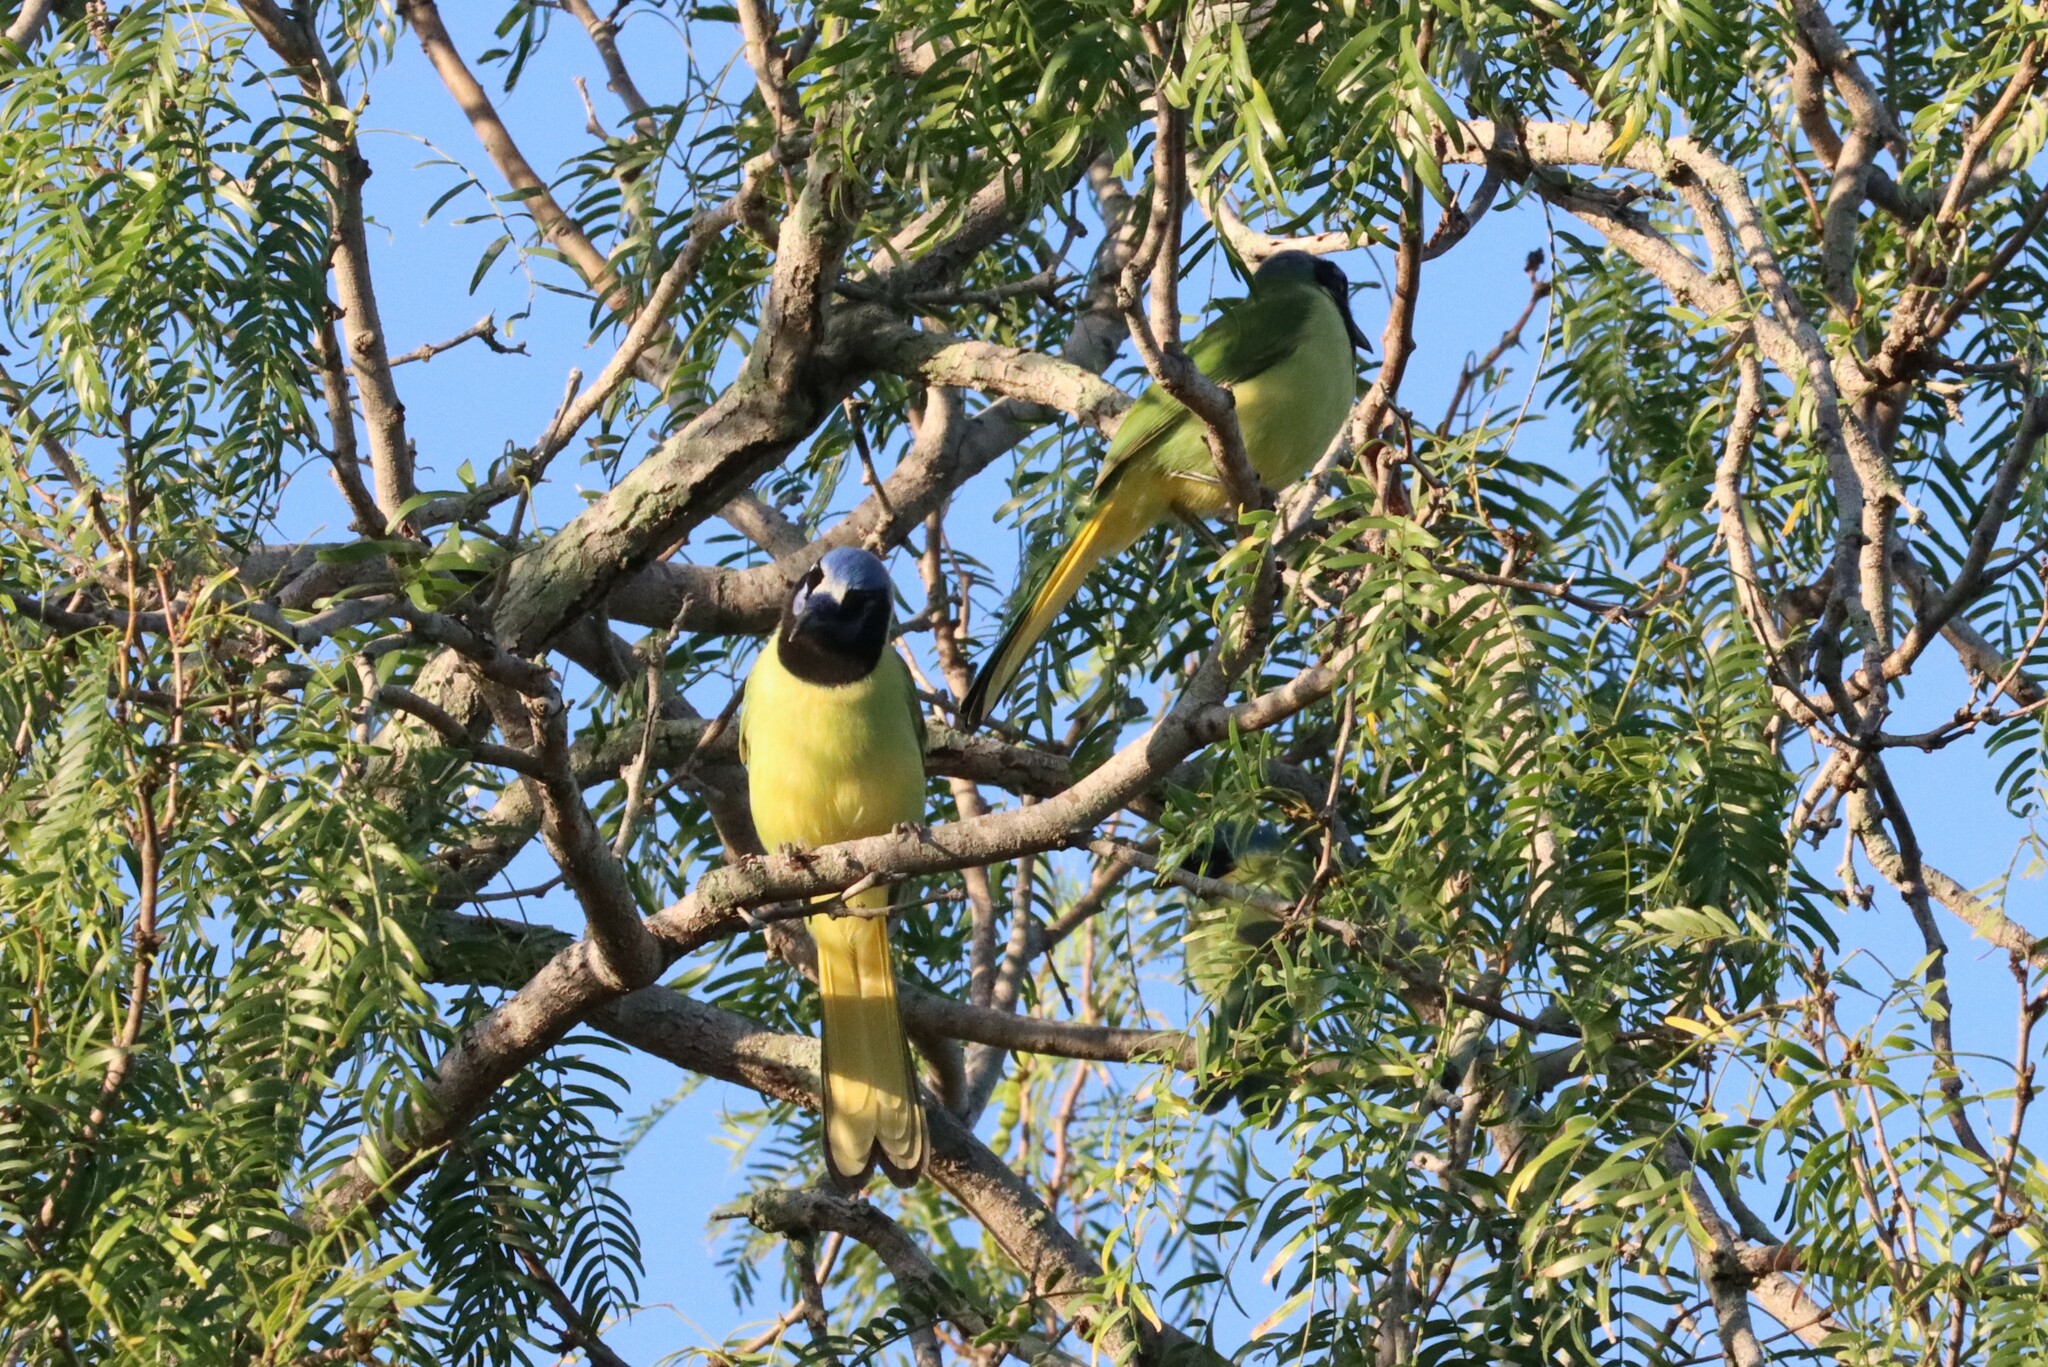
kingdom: Animalia
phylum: Chordata
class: Aves
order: Passeriformes
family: Corvidae
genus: Cyanocorax
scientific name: Cyanocorax yncas
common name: Green jay
